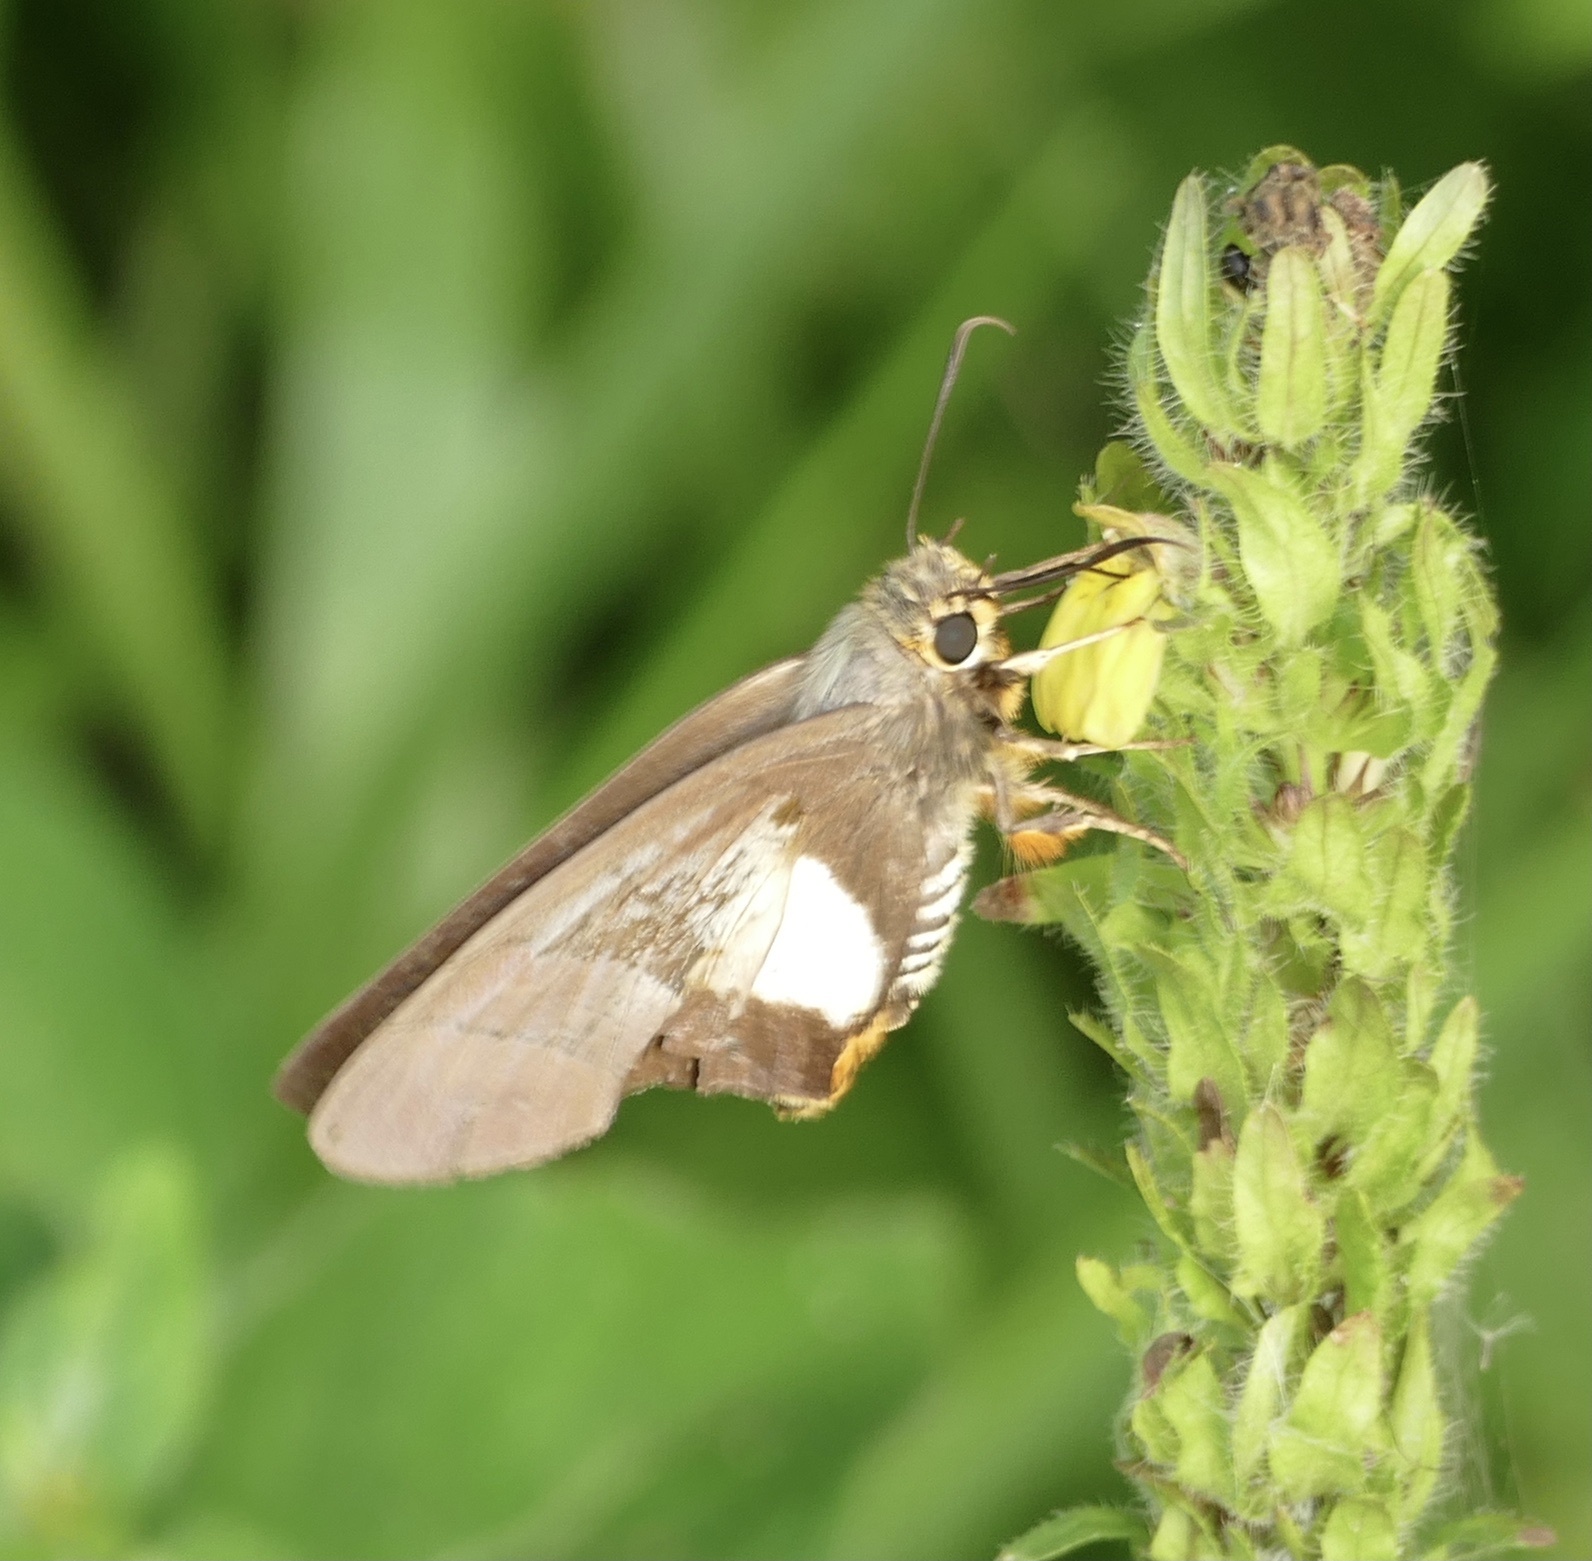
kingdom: Animalia
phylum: Arthropoda
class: Insecta
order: Lepidoptera
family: Hesperiidae
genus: Coeliades
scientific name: Coeliades forestan
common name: Striped policeman
